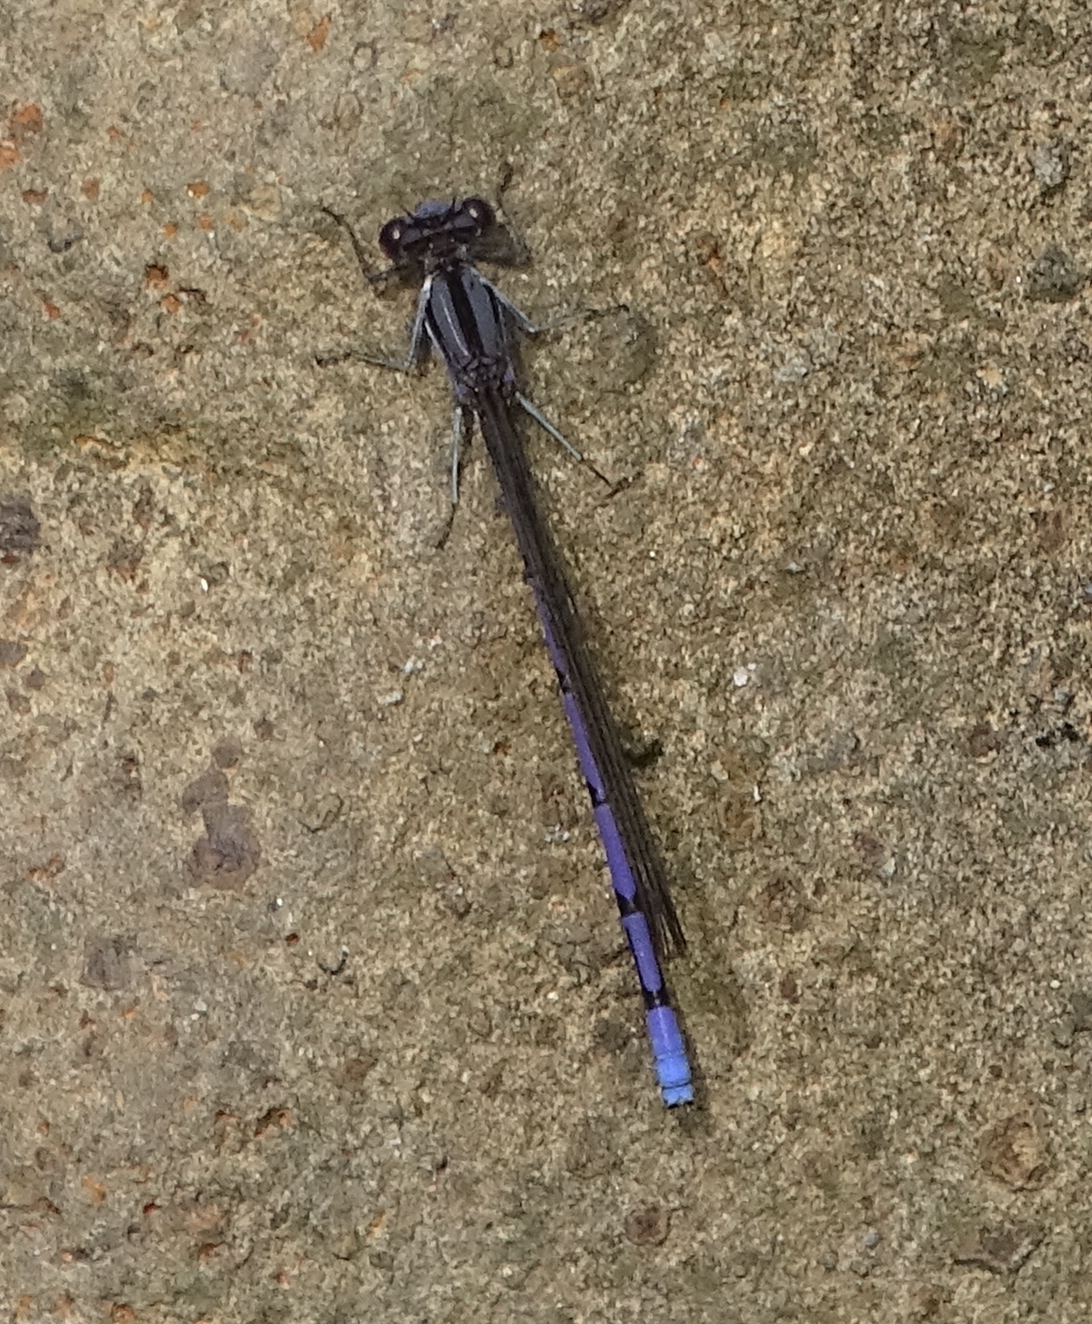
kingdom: Animalia
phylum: Arthropoda
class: Insecta
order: Odonata
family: Coenagrionidae
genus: Argia
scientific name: Argia fumipennis
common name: Variable dancer
